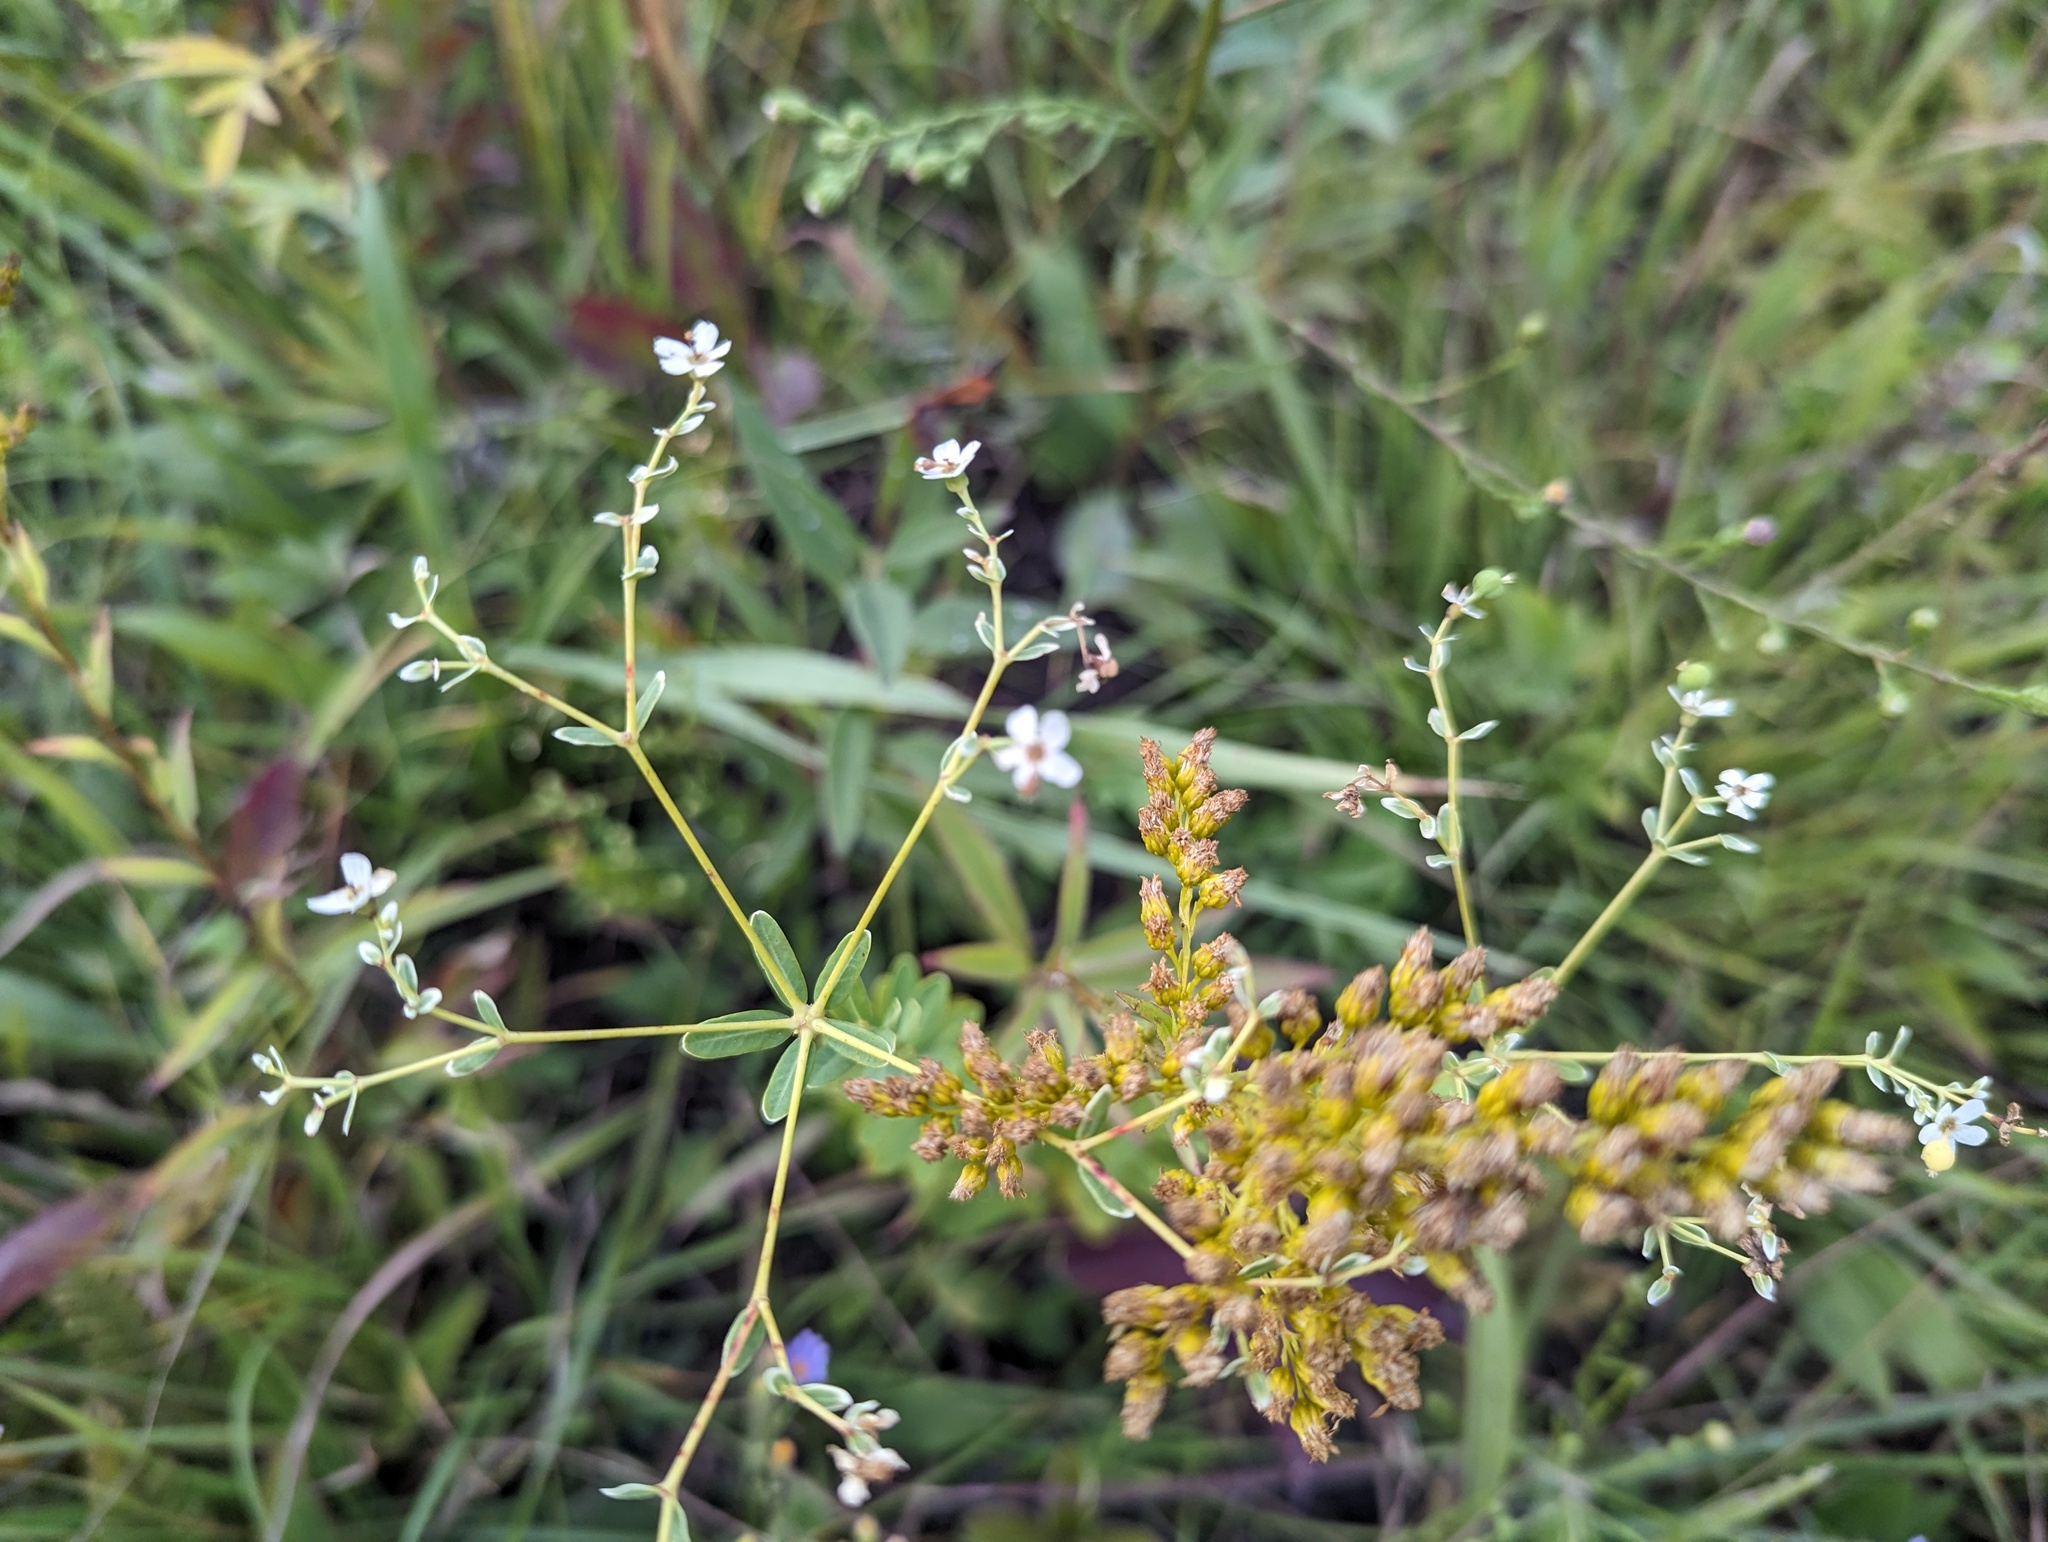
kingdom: Plantae
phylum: Tracheophyta
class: Magnoliopsida
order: Malpighiales
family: Euphorbiaceae
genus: Euphorbia
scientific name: Euphorbia corollata
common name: Flowering spurge
